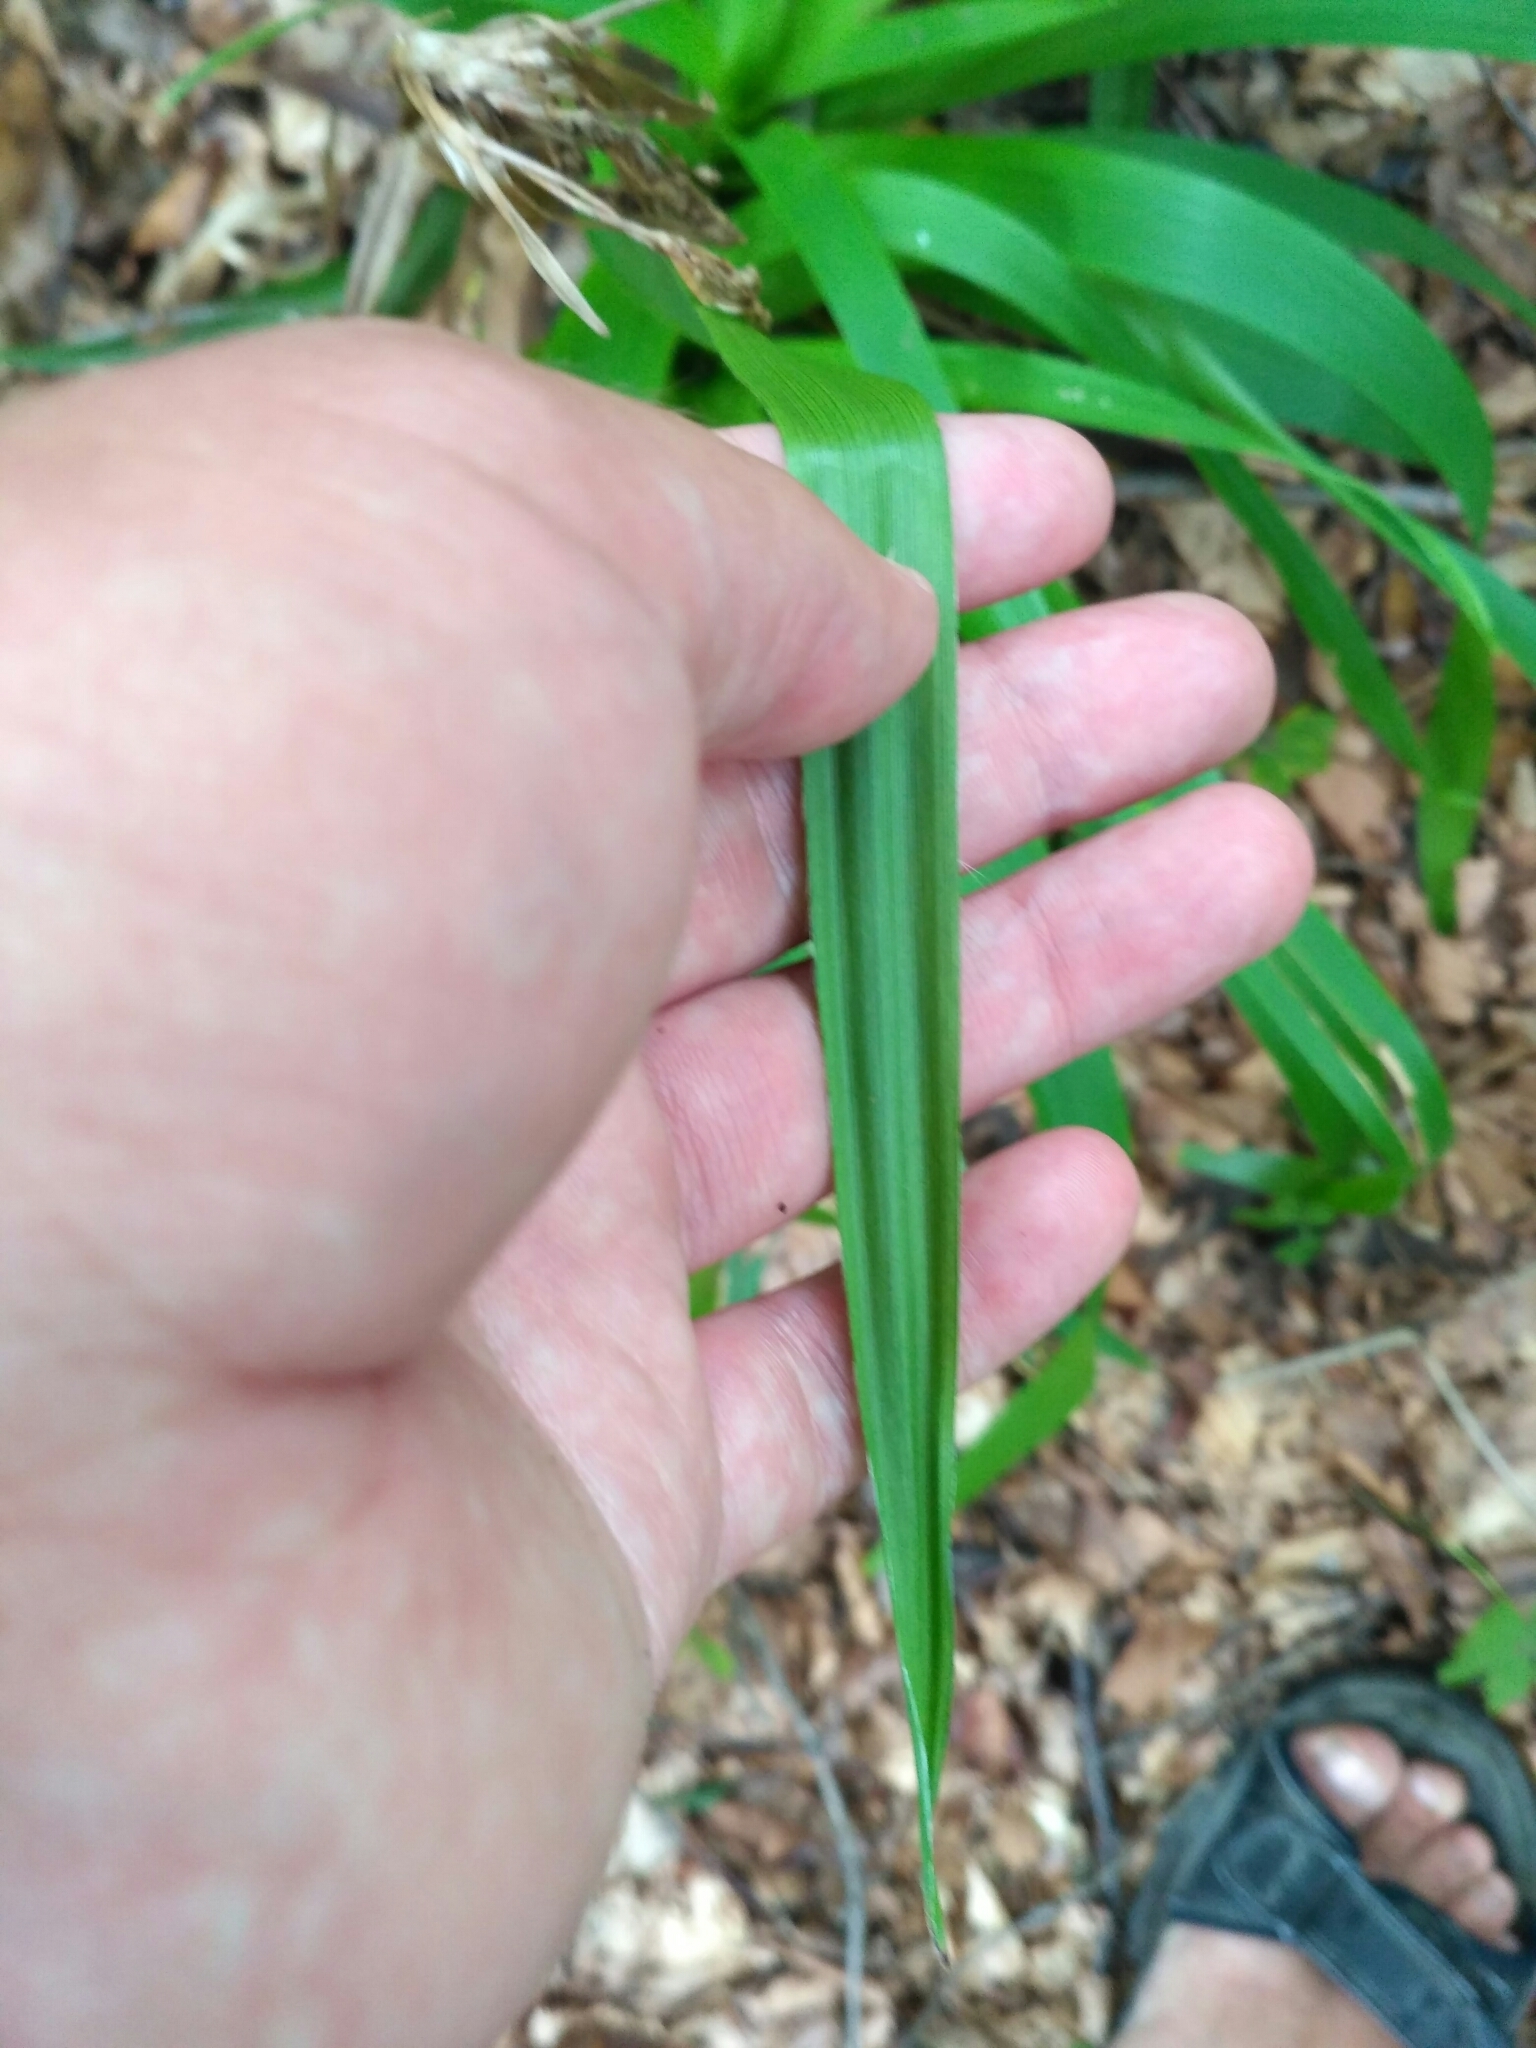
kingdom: Plantae
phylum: Tracheophyta
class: Liliopsida
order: Poales
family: Juncaceae
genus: Luzula
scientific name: Luzula sylvatica
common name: Great wood-rush
